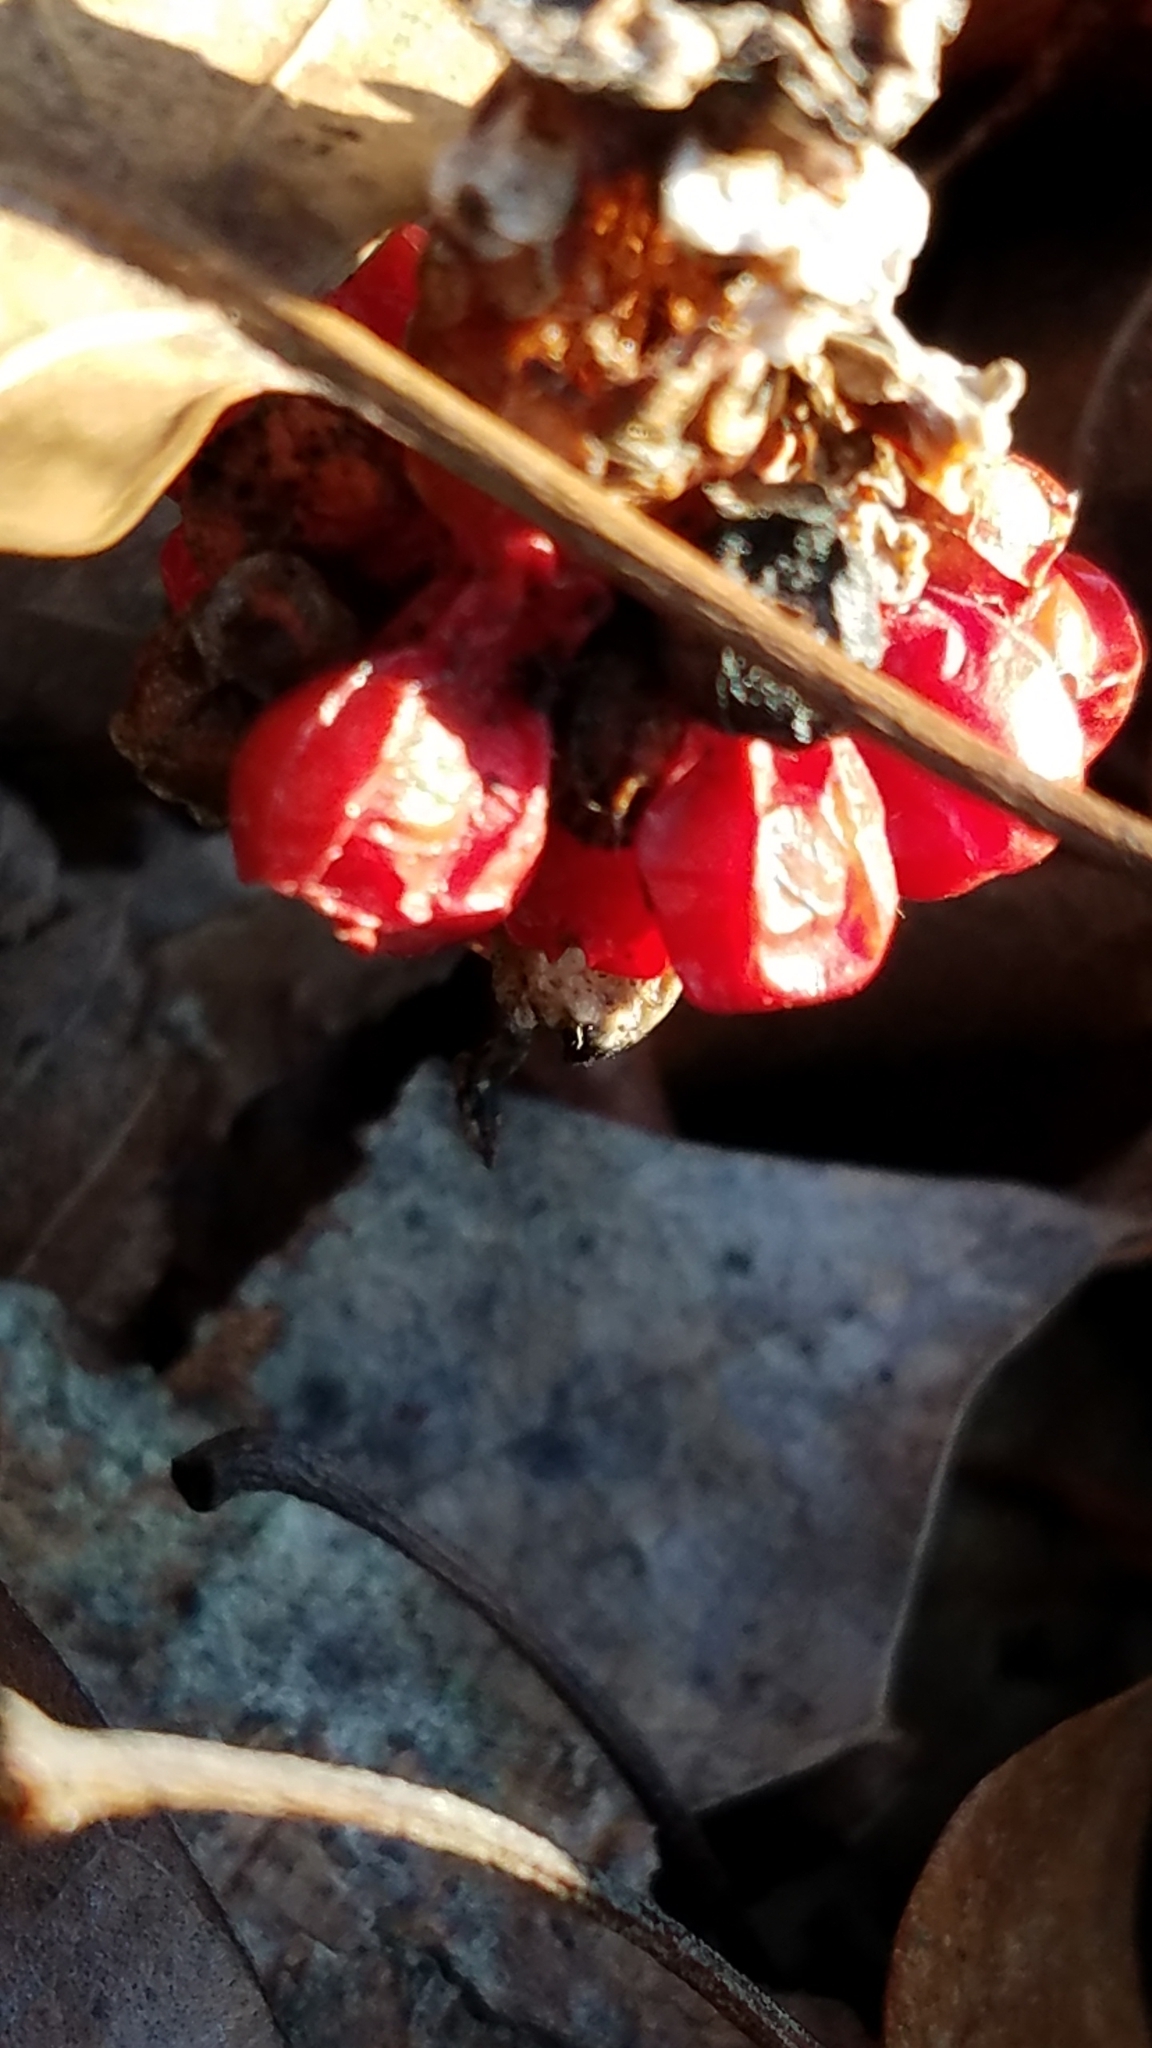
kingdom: Plantae
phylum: Tracheophyta
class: Liliopsida
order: Alismatales
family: Araceae
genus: Arisaema
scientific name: Arisaema triphyllum
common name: Jack-in-the-pulpit
